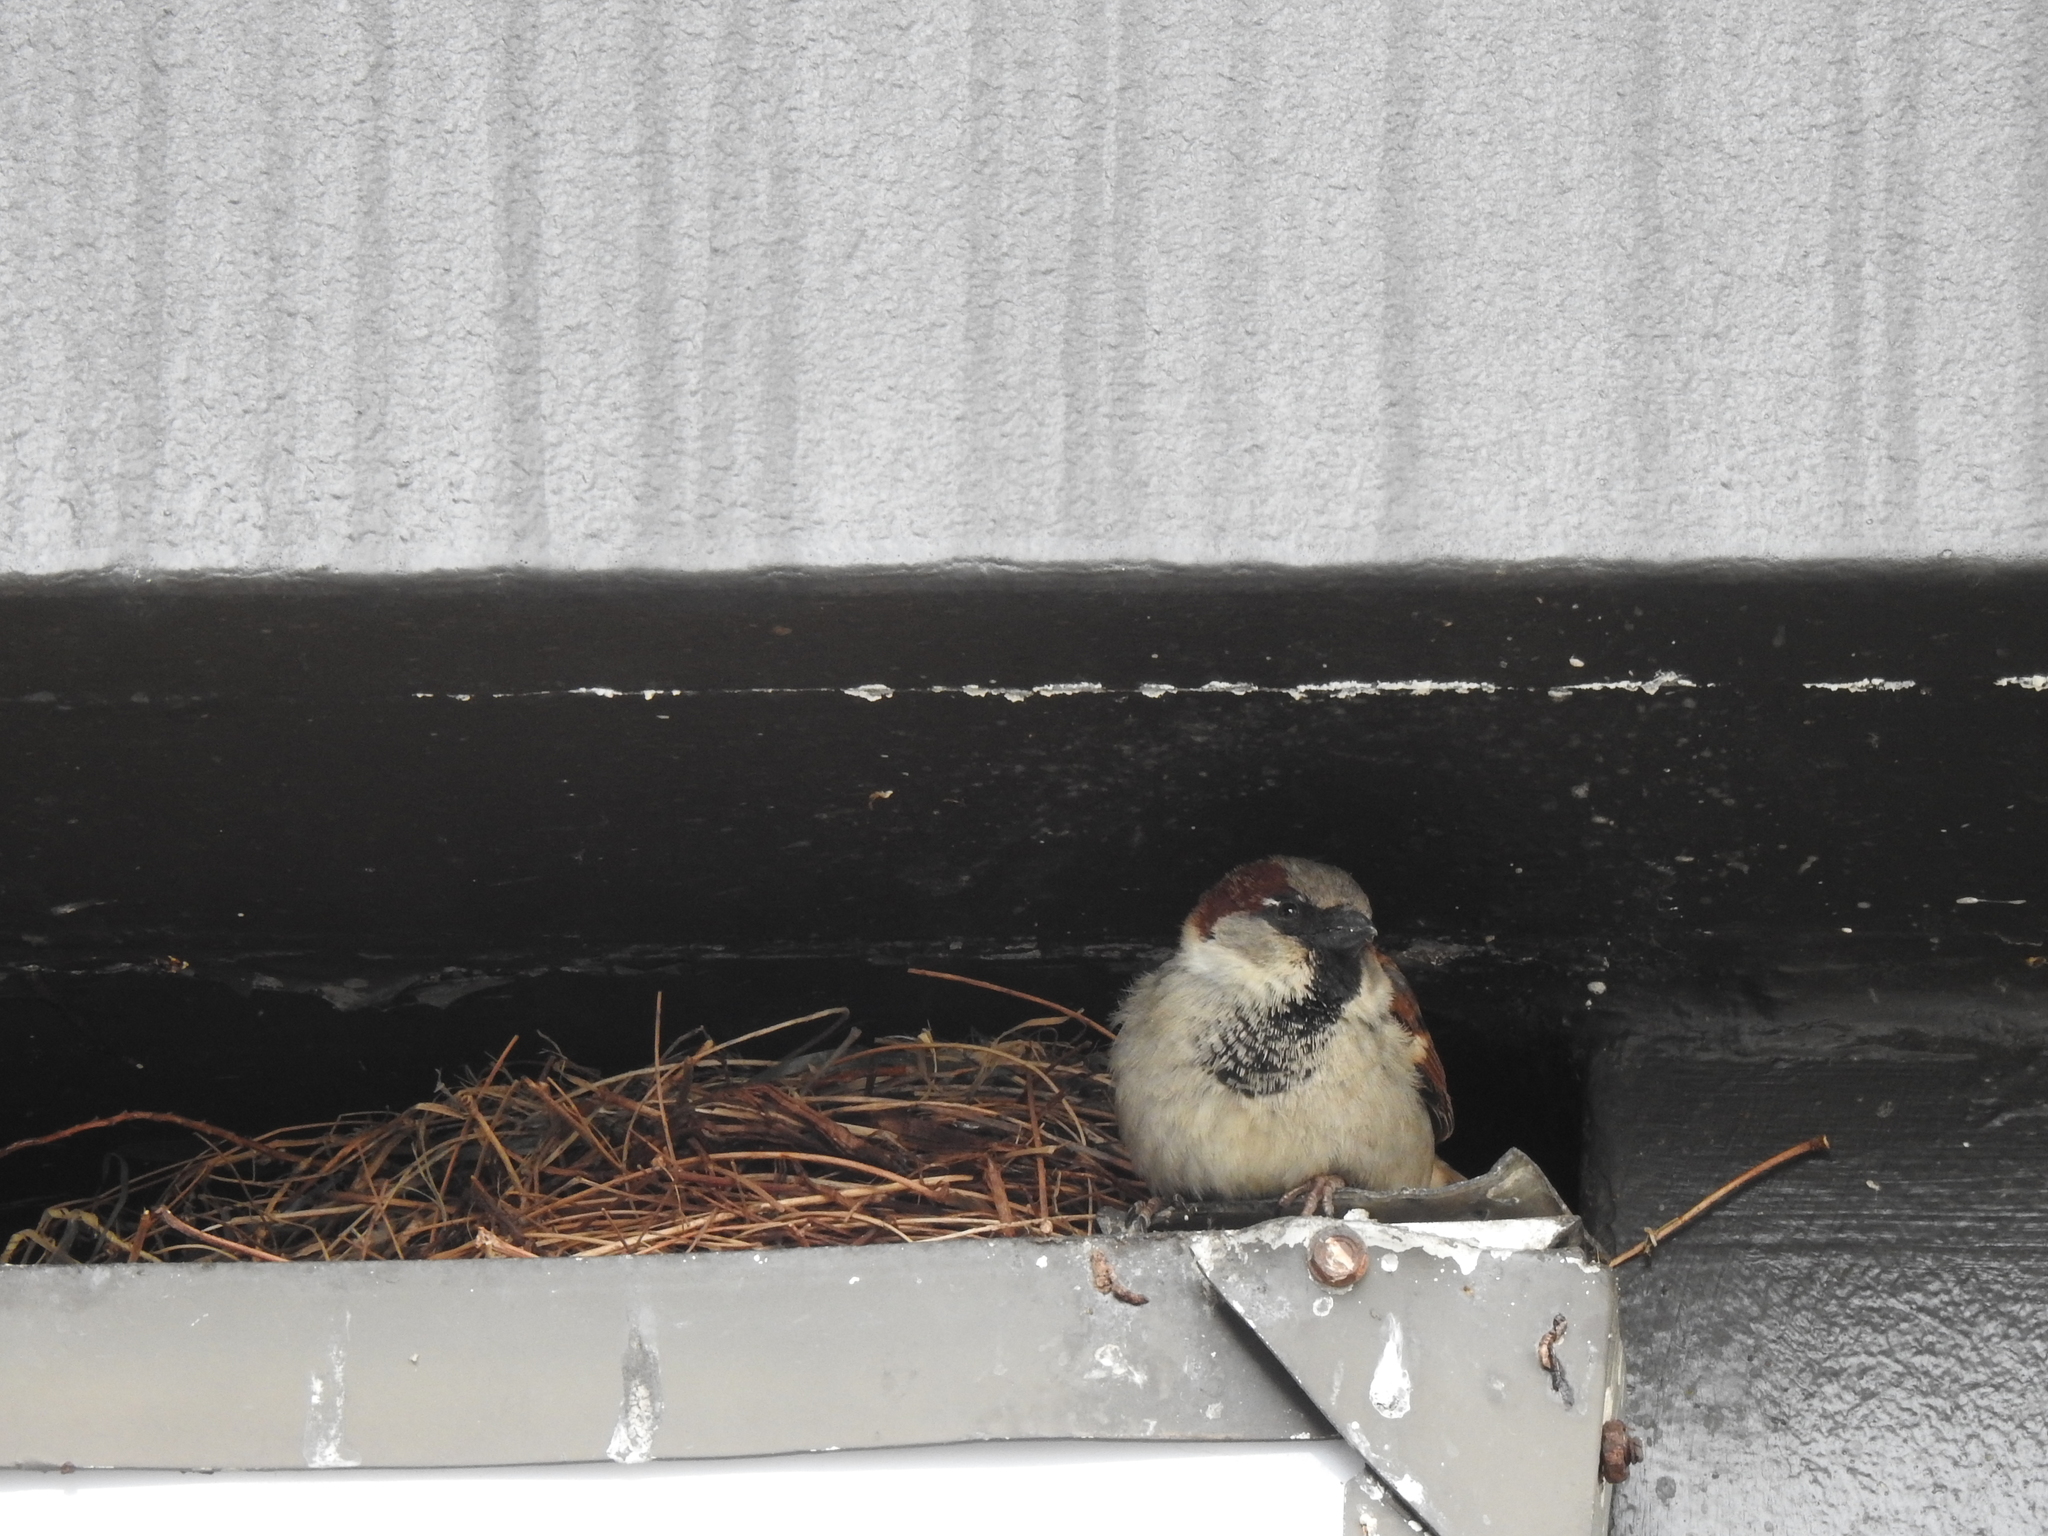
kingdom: Animalia
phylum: Chordata
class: Aves
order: Passeriformes
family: Passeridae
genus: Passer
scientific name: Passer domesticus
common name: House sparrow
